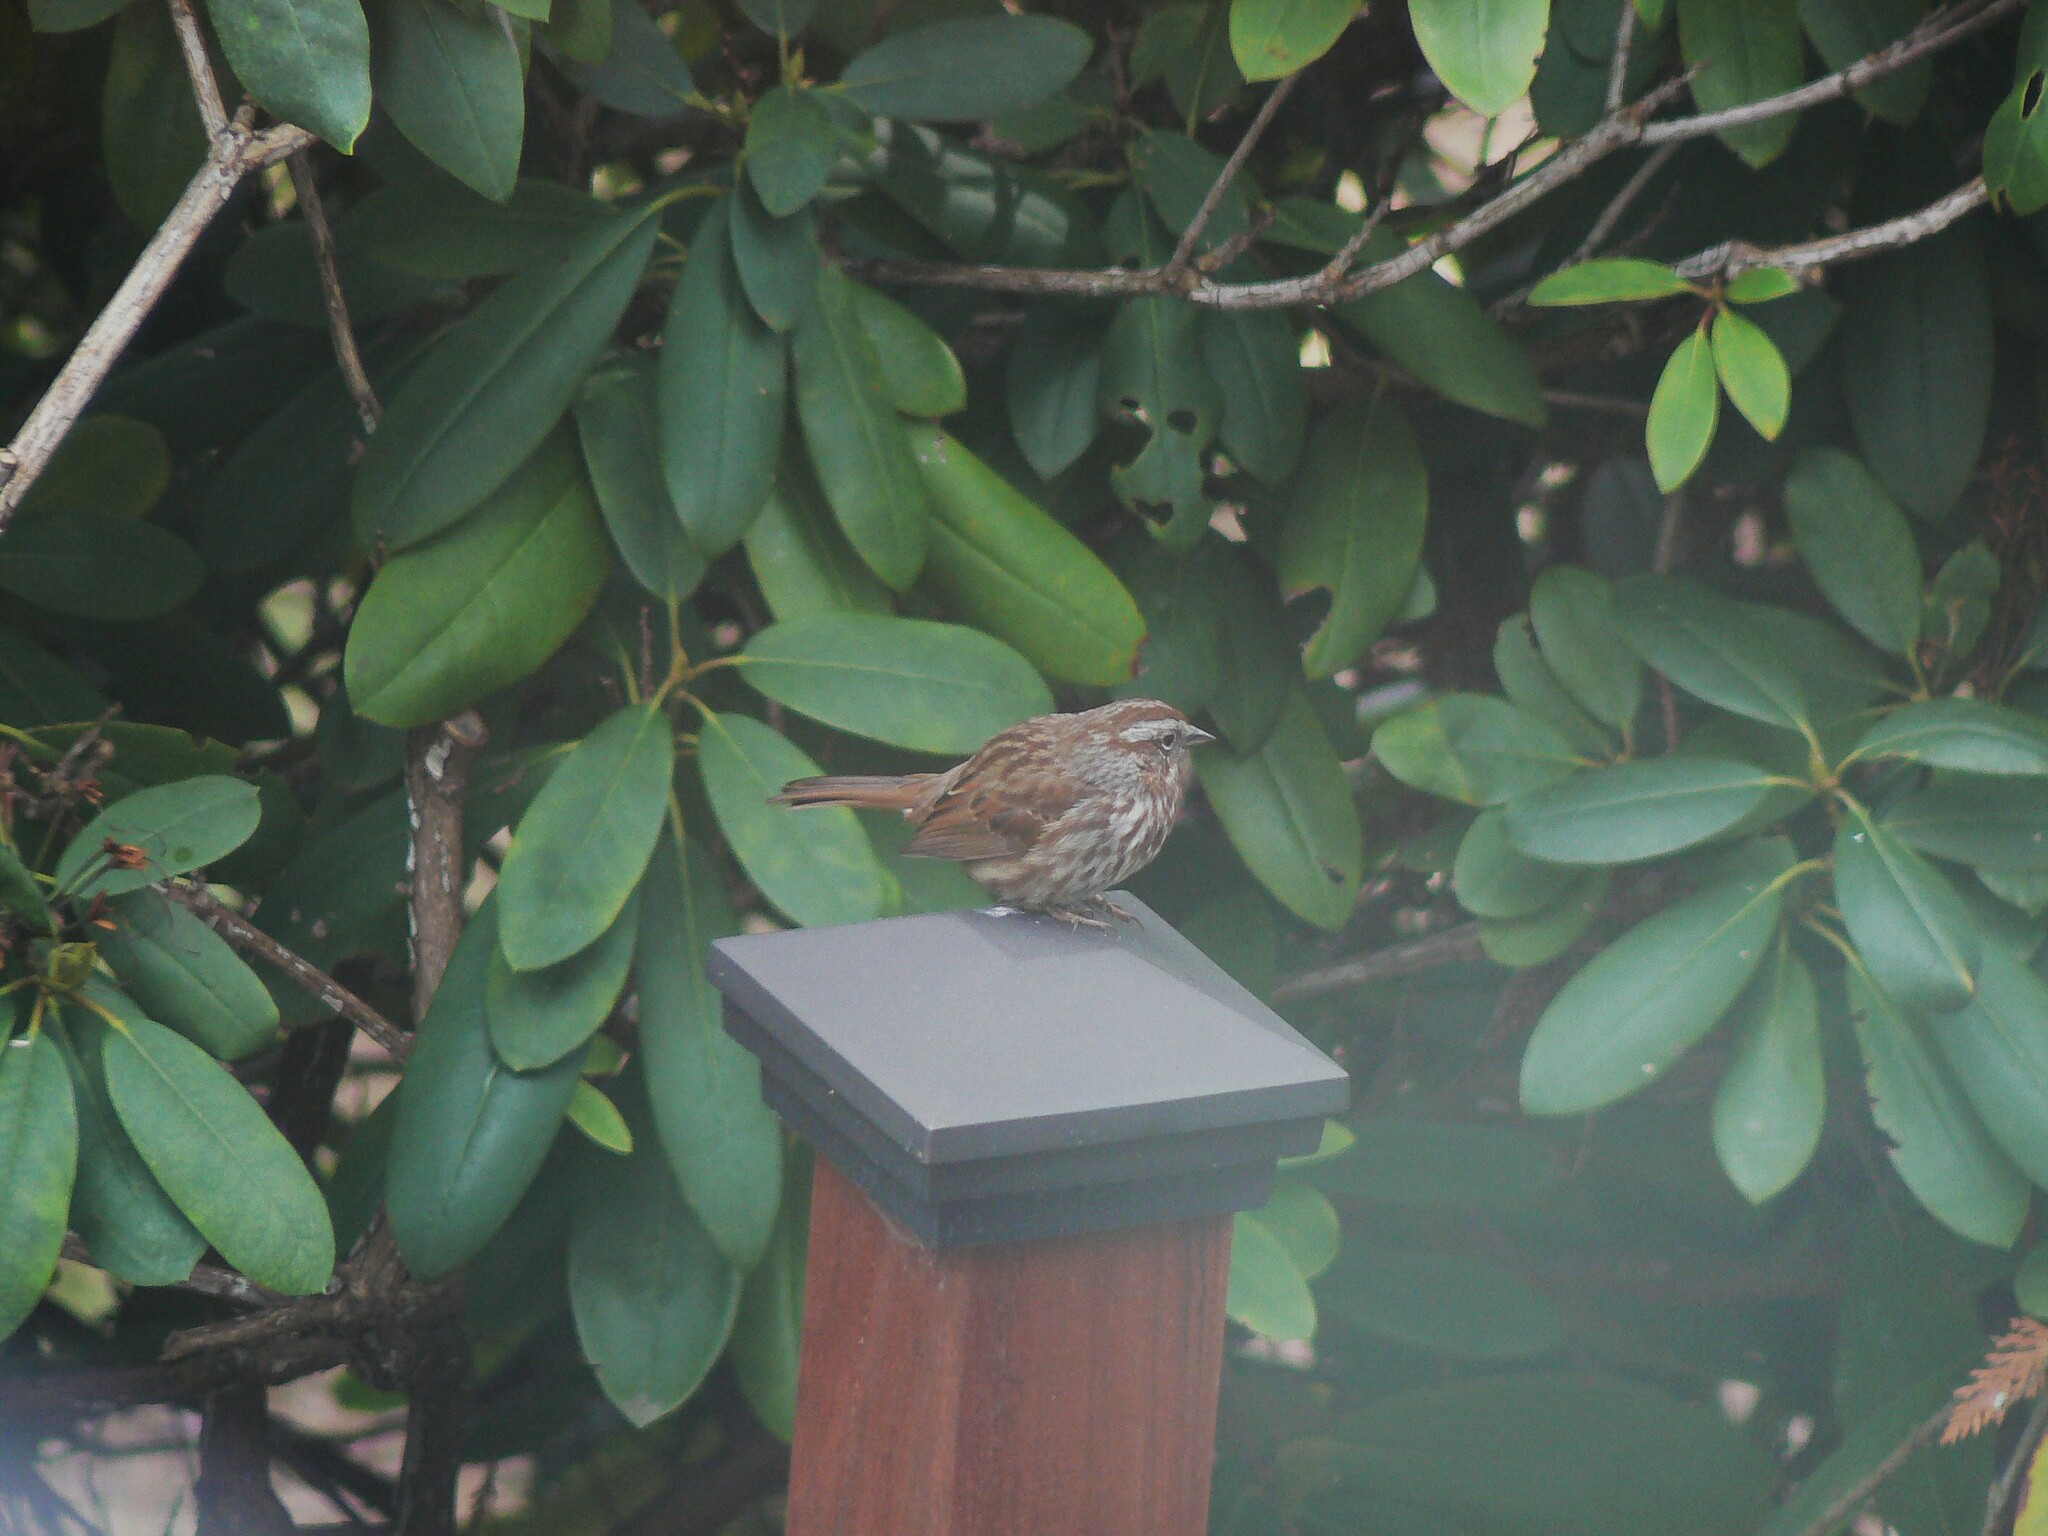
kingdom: Animalia
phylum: Chordata
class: Aves
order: Passeriformes
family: Passerellidae
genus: Melospiza
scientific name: Melospiza melodia
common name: Song sparrow
